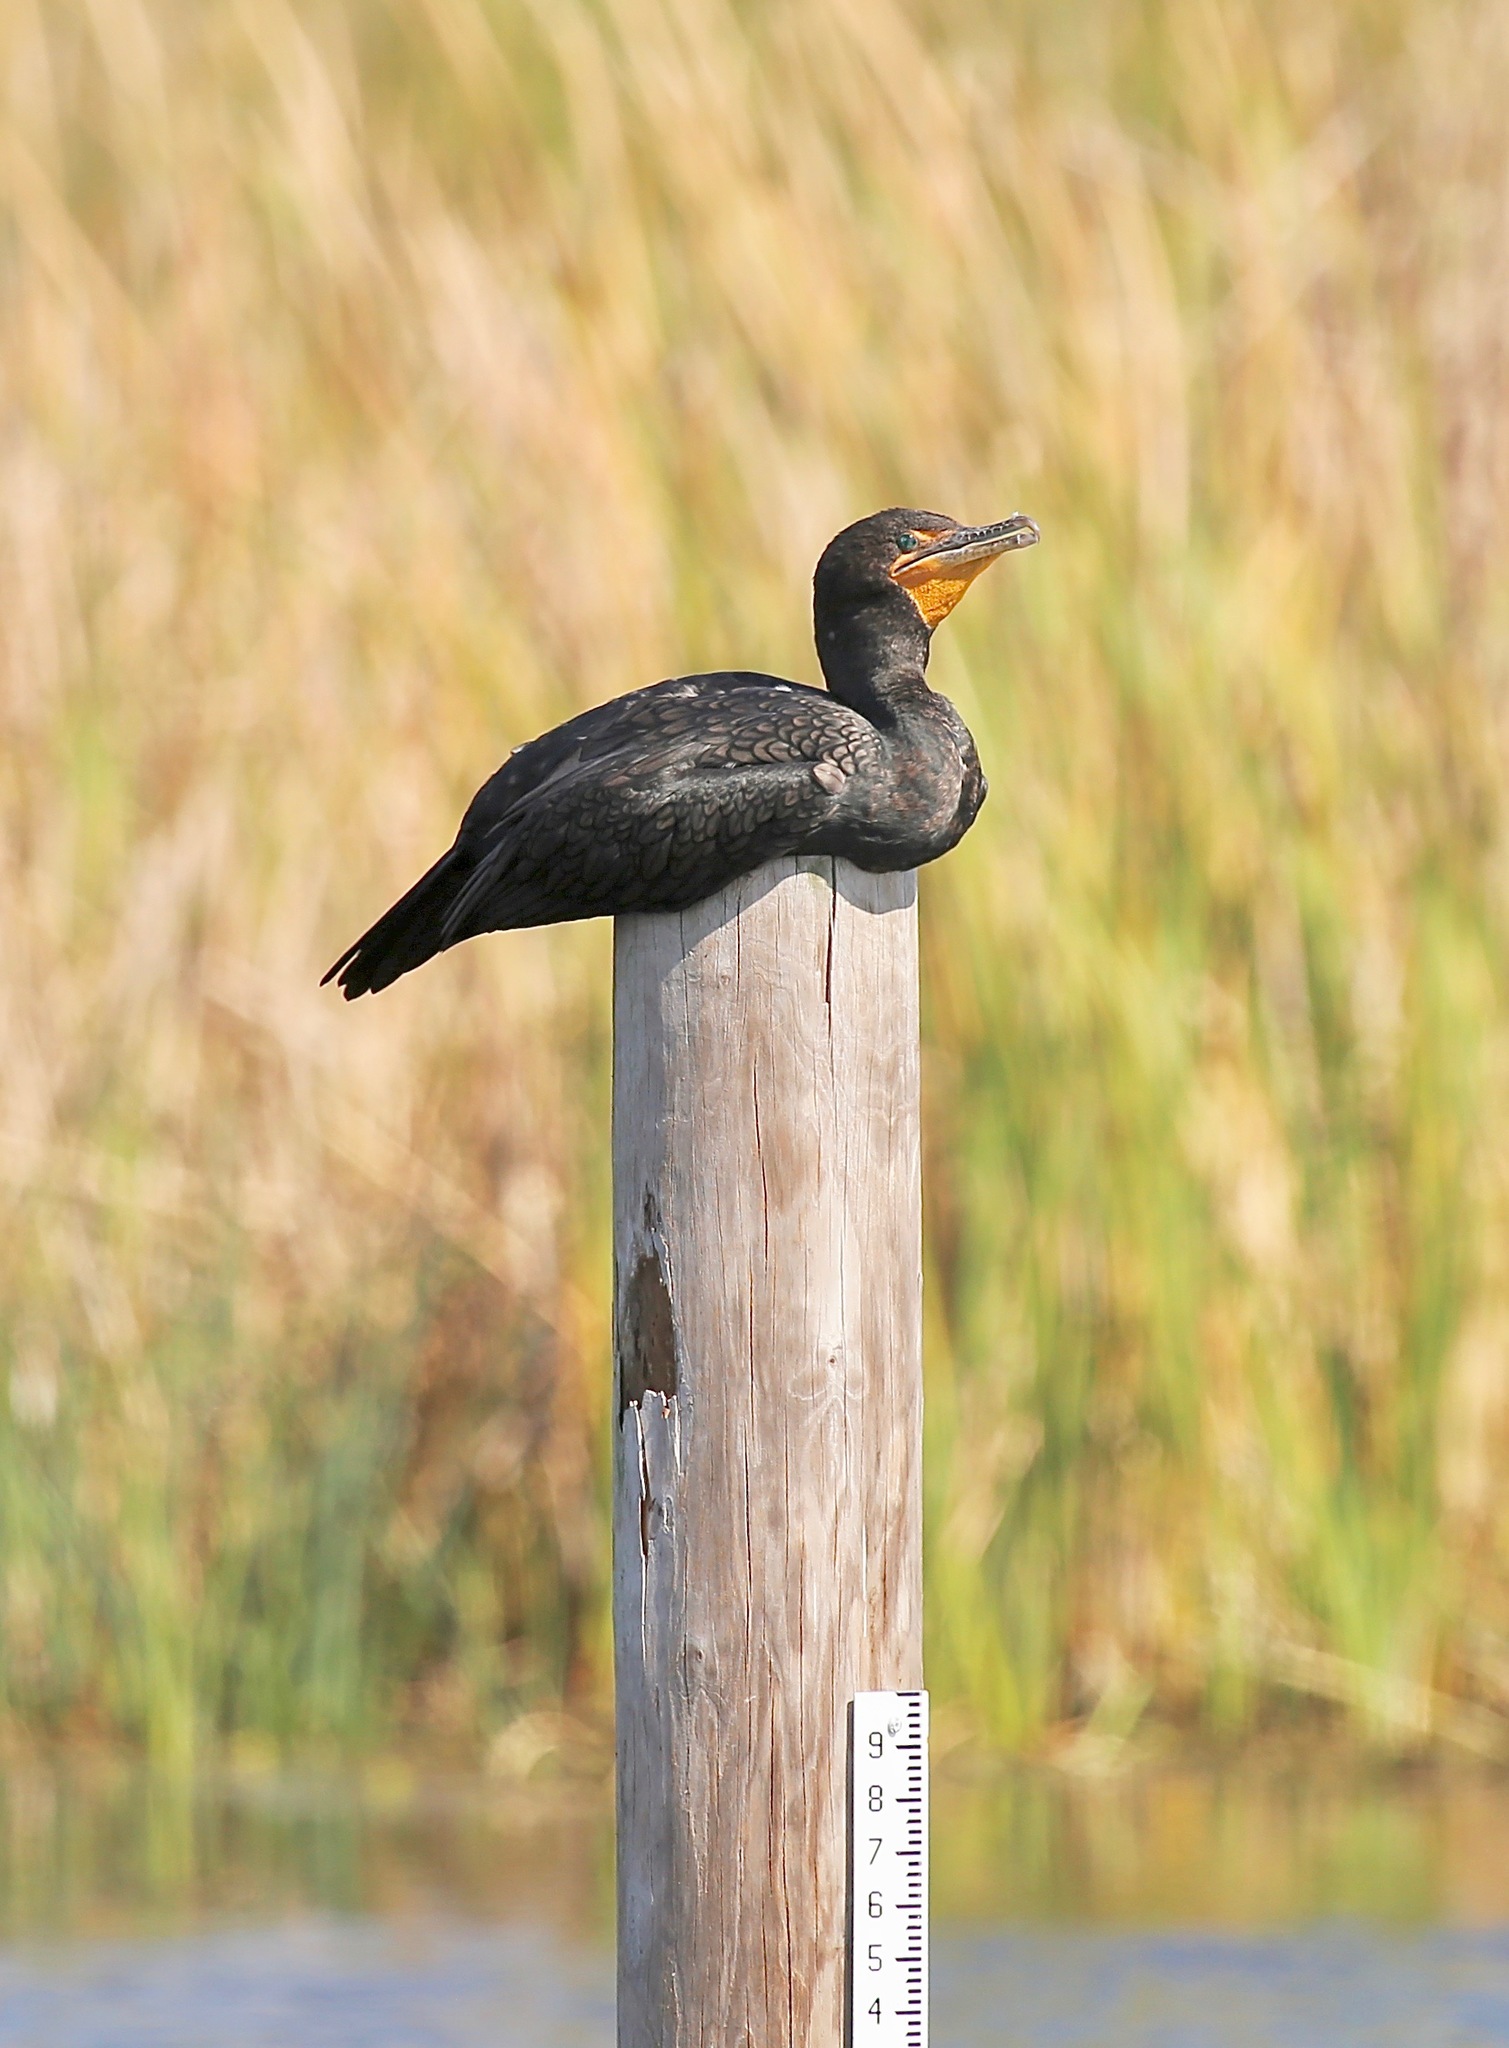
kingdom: Animalia
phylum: Chordata
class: Aves
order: Suliformes
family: Phalacrocoracidae
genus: Phalacrocorax
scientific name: Phalacrocorax auritus
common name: Double-crested cormorant
